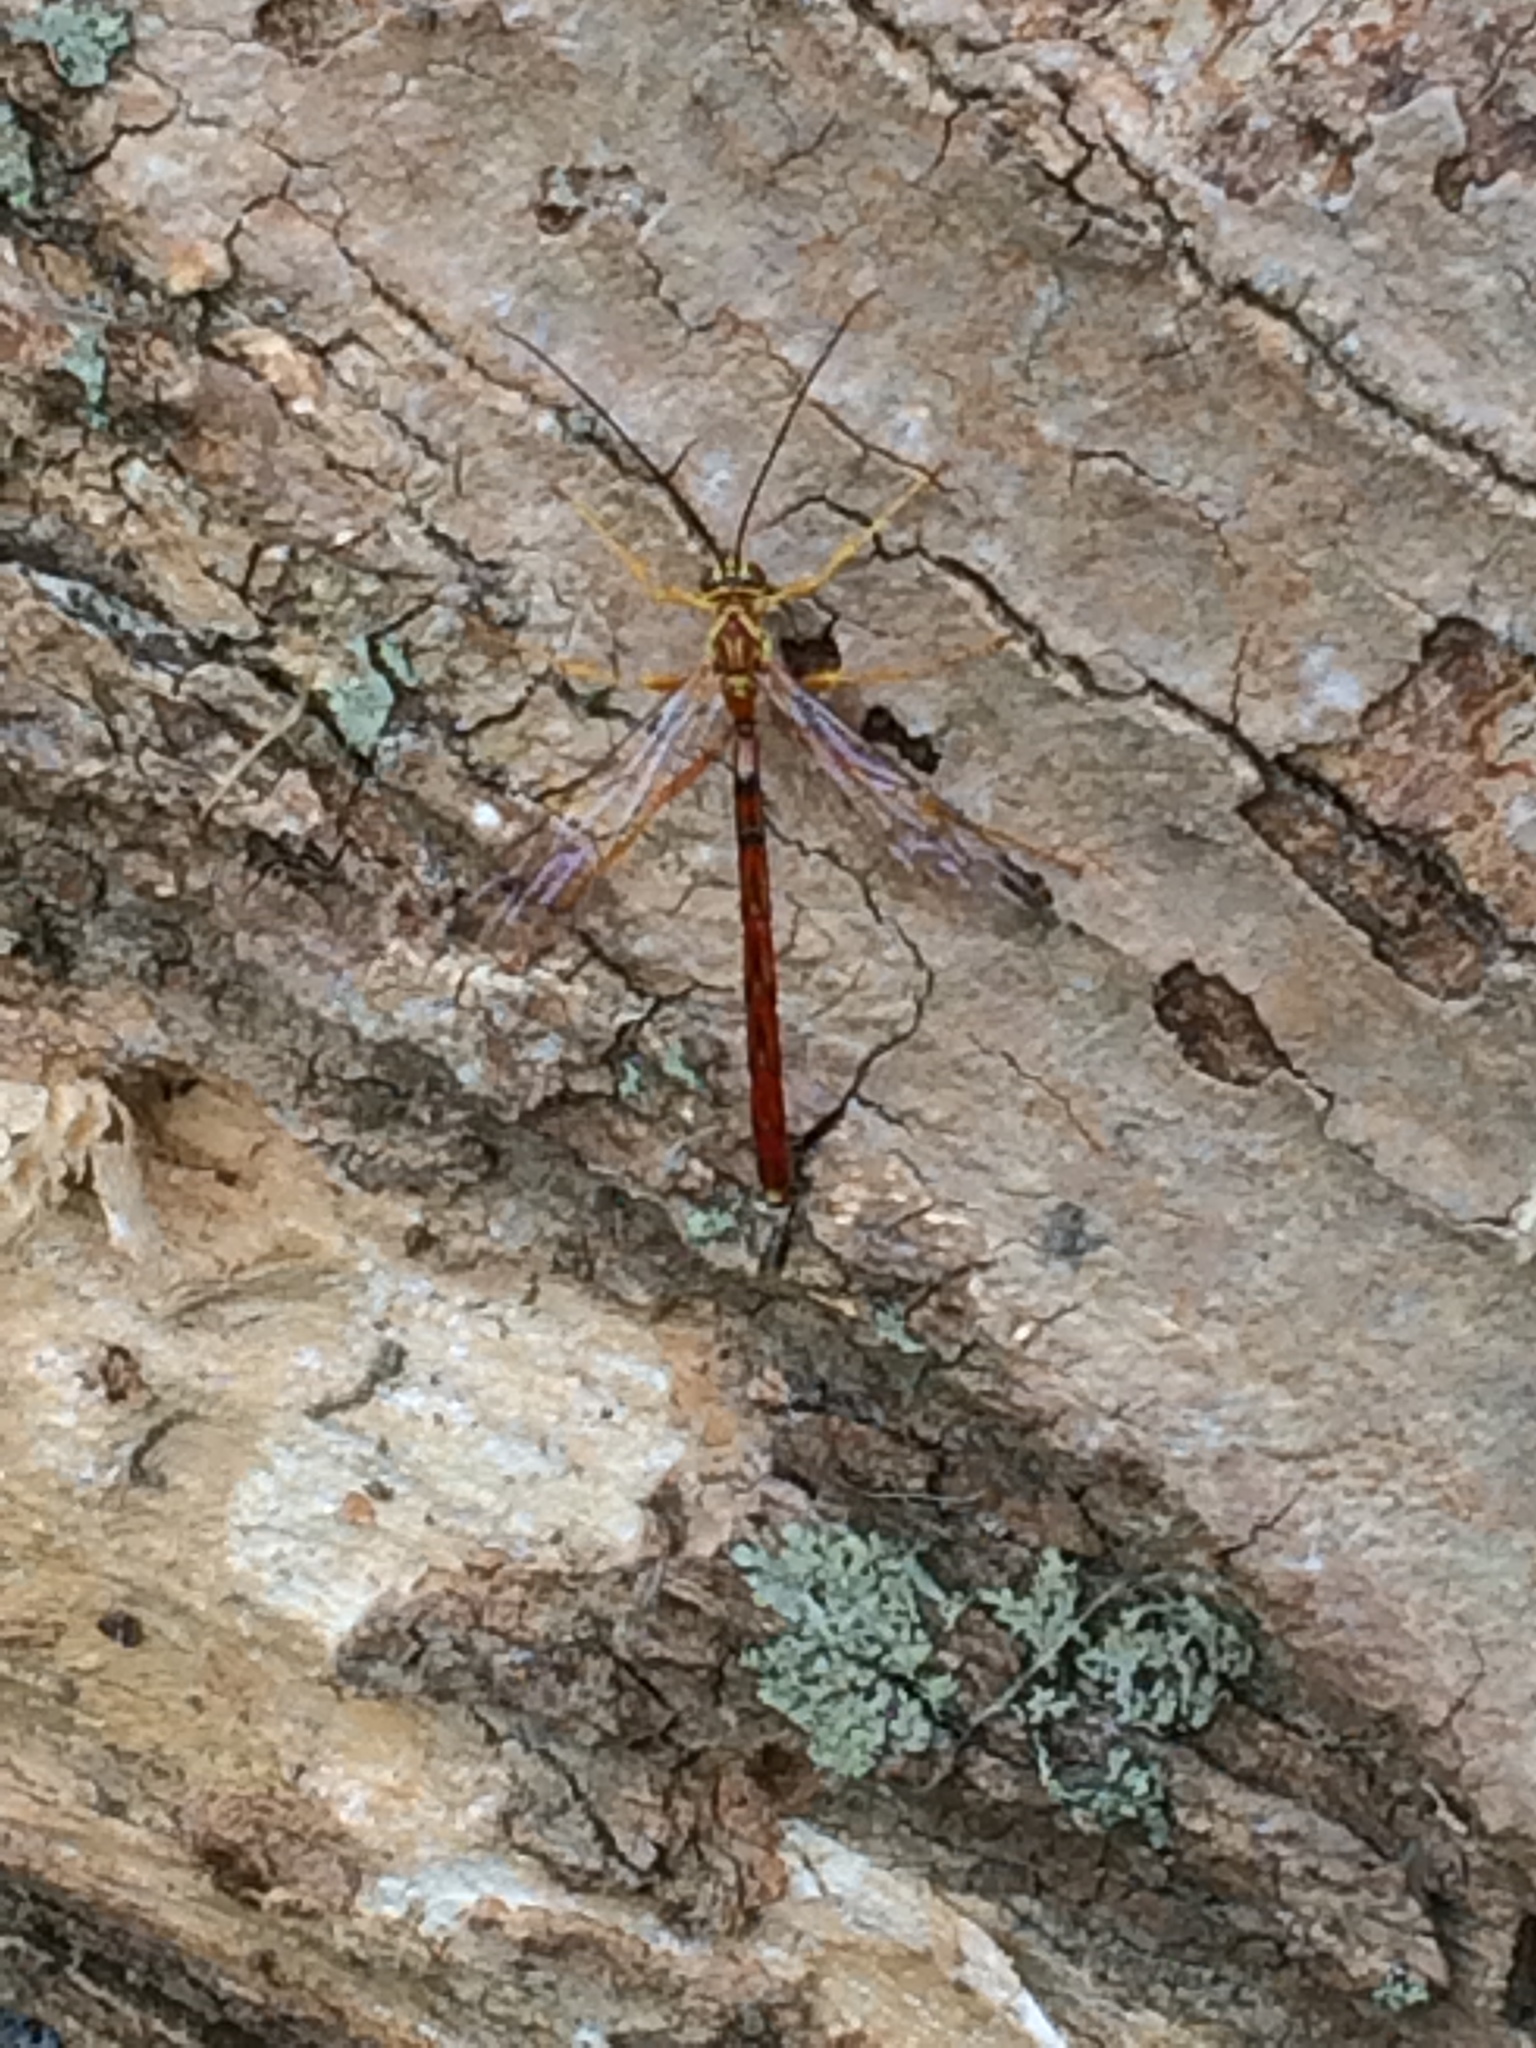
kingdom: Animalia
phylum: Arthropoda
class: Insecta
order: Hymenoptera
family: Ichneumonidae
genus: Megarhyssa
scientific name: Megarhyssa greenei
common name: Greene's giant ichneumonid wasp
